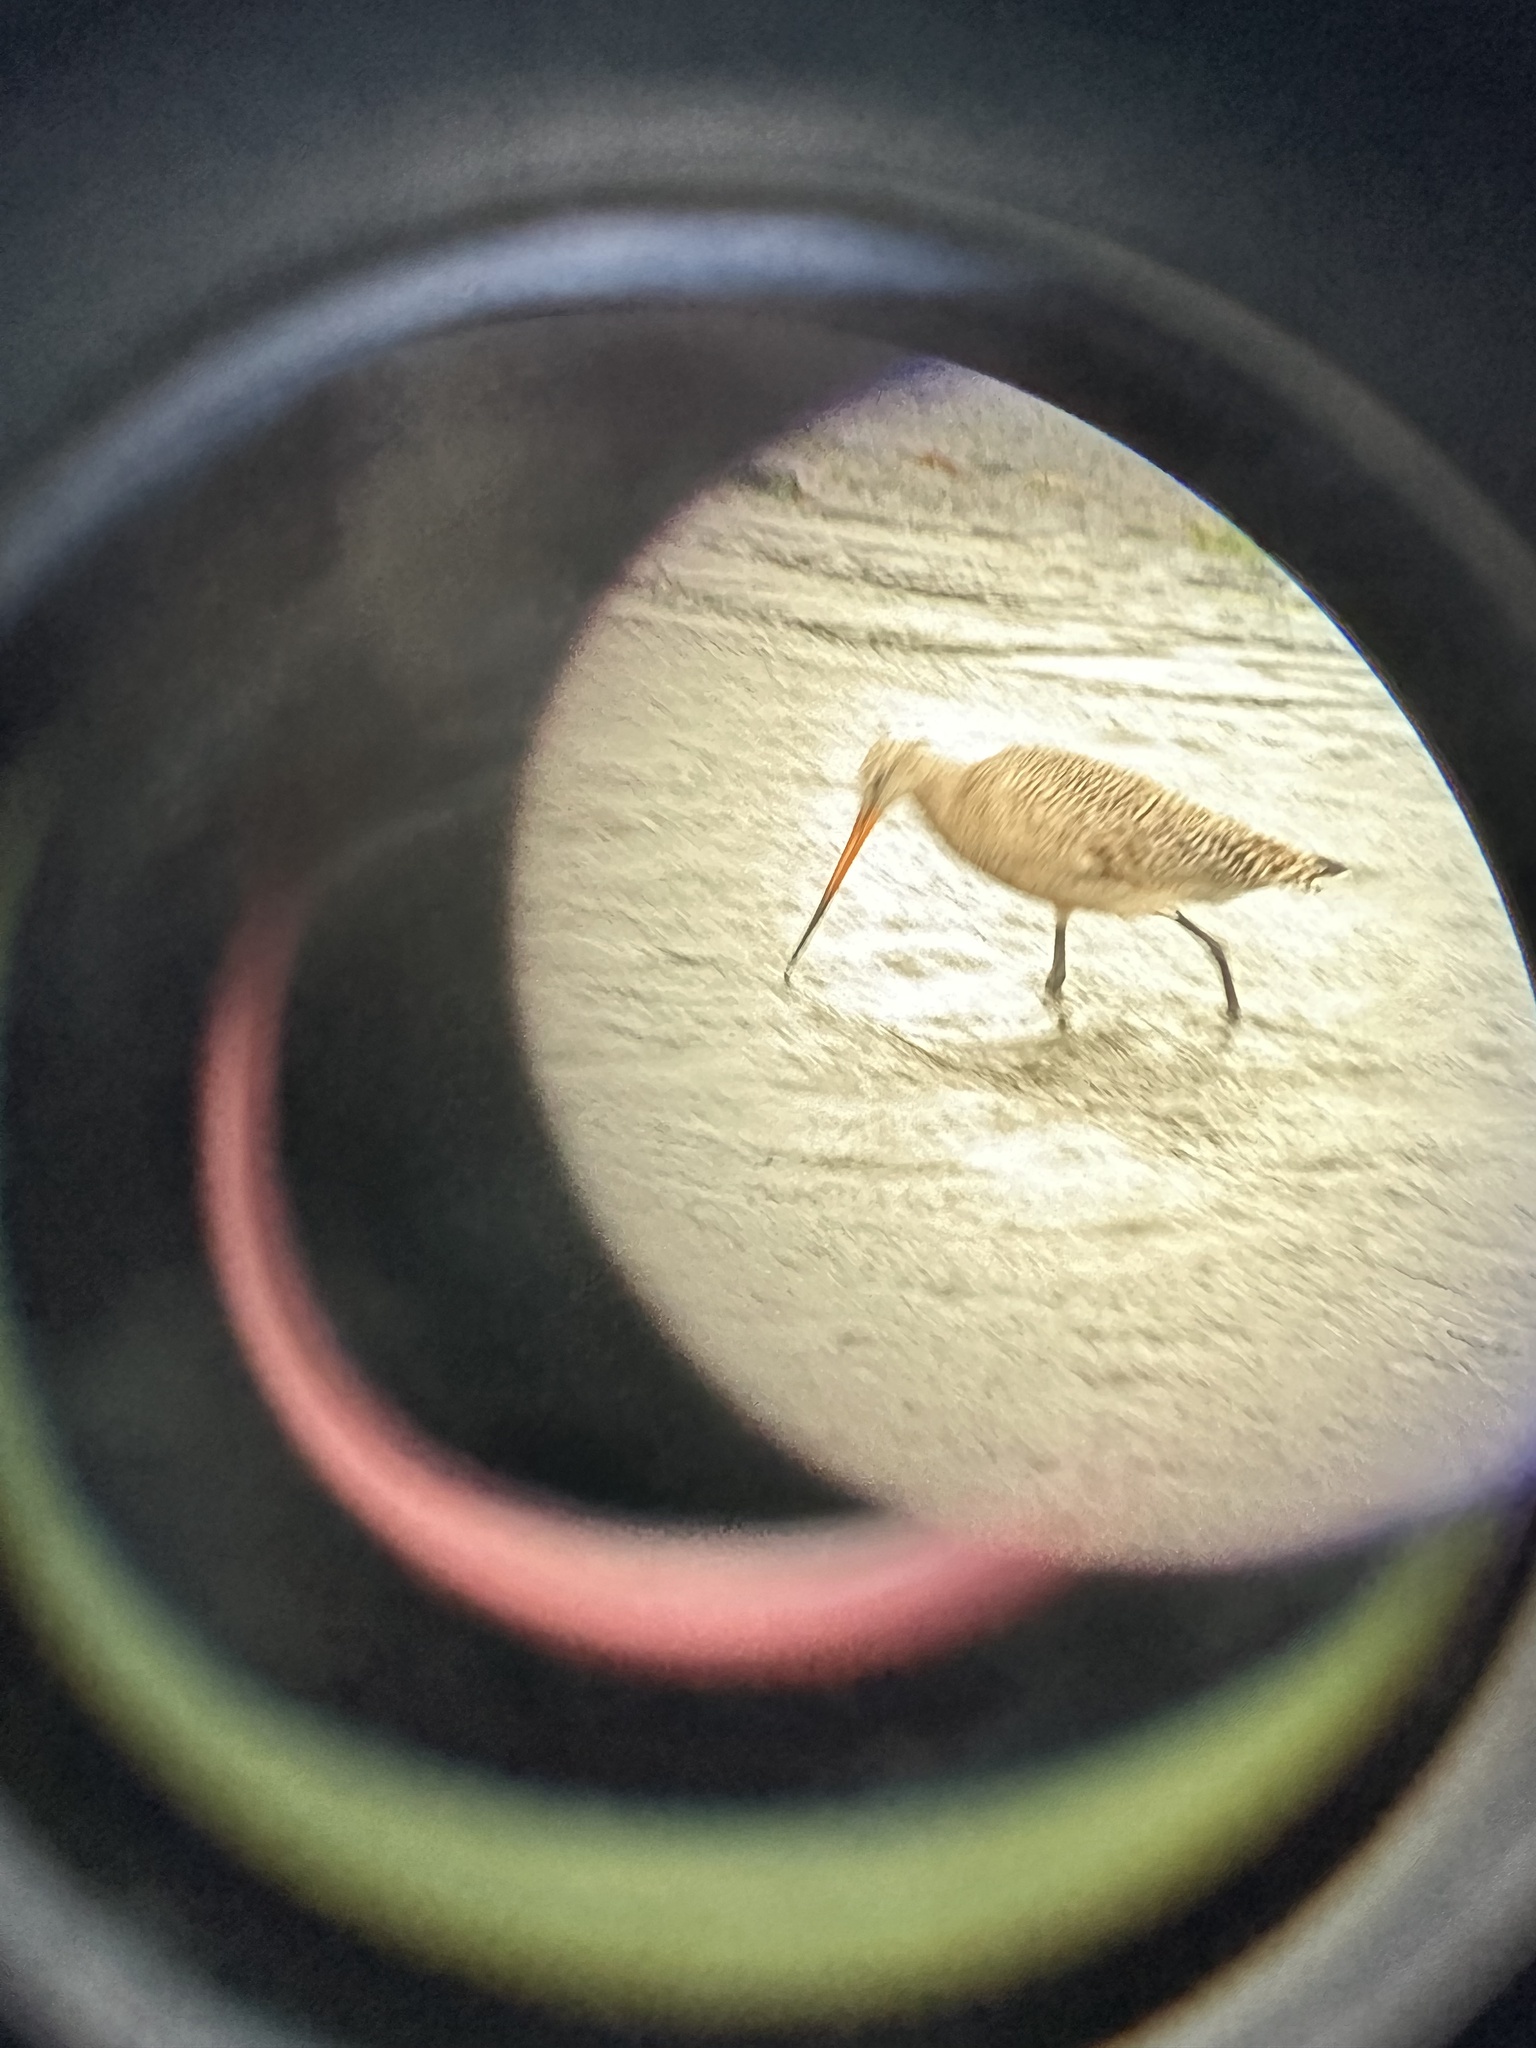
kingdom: Animalia
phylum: Chordata
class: Aves
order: Charadriiformes
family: Scolopacidae
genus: Limosa
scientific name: Limosa fedoa
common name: Marbled godwit
